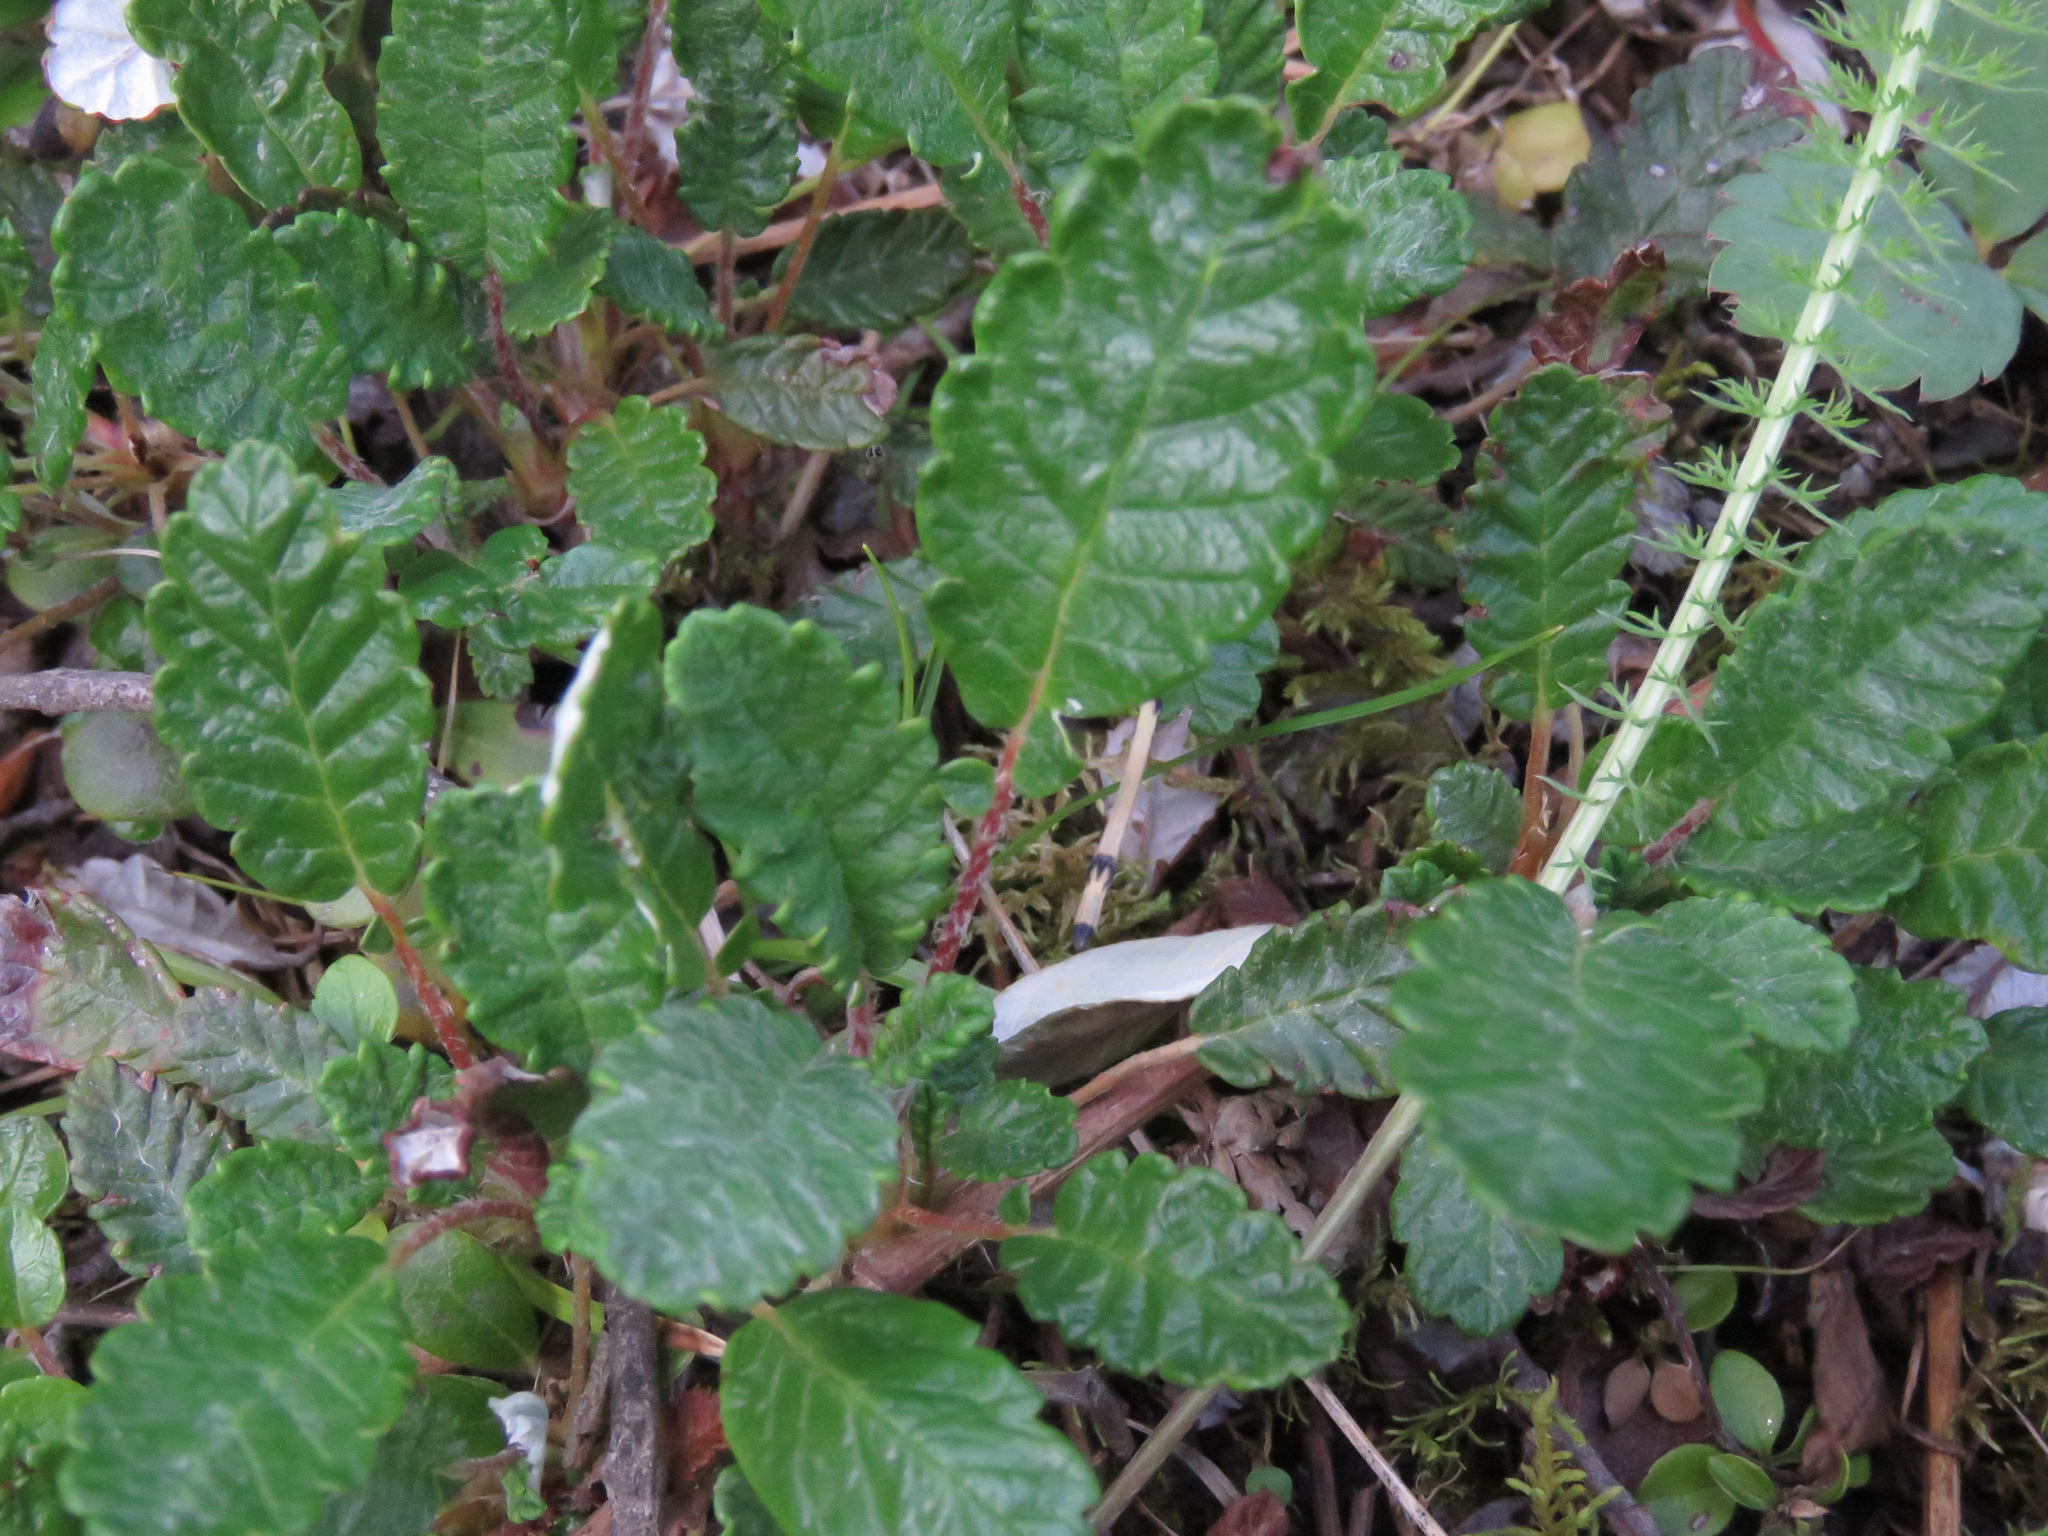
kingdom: Plantae
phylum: Tracheophyta
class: Magnoliopsida
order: Rosales
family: Rosaceae
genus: Dryas
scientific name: Dryas drummondii
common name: Drummond's dryad
